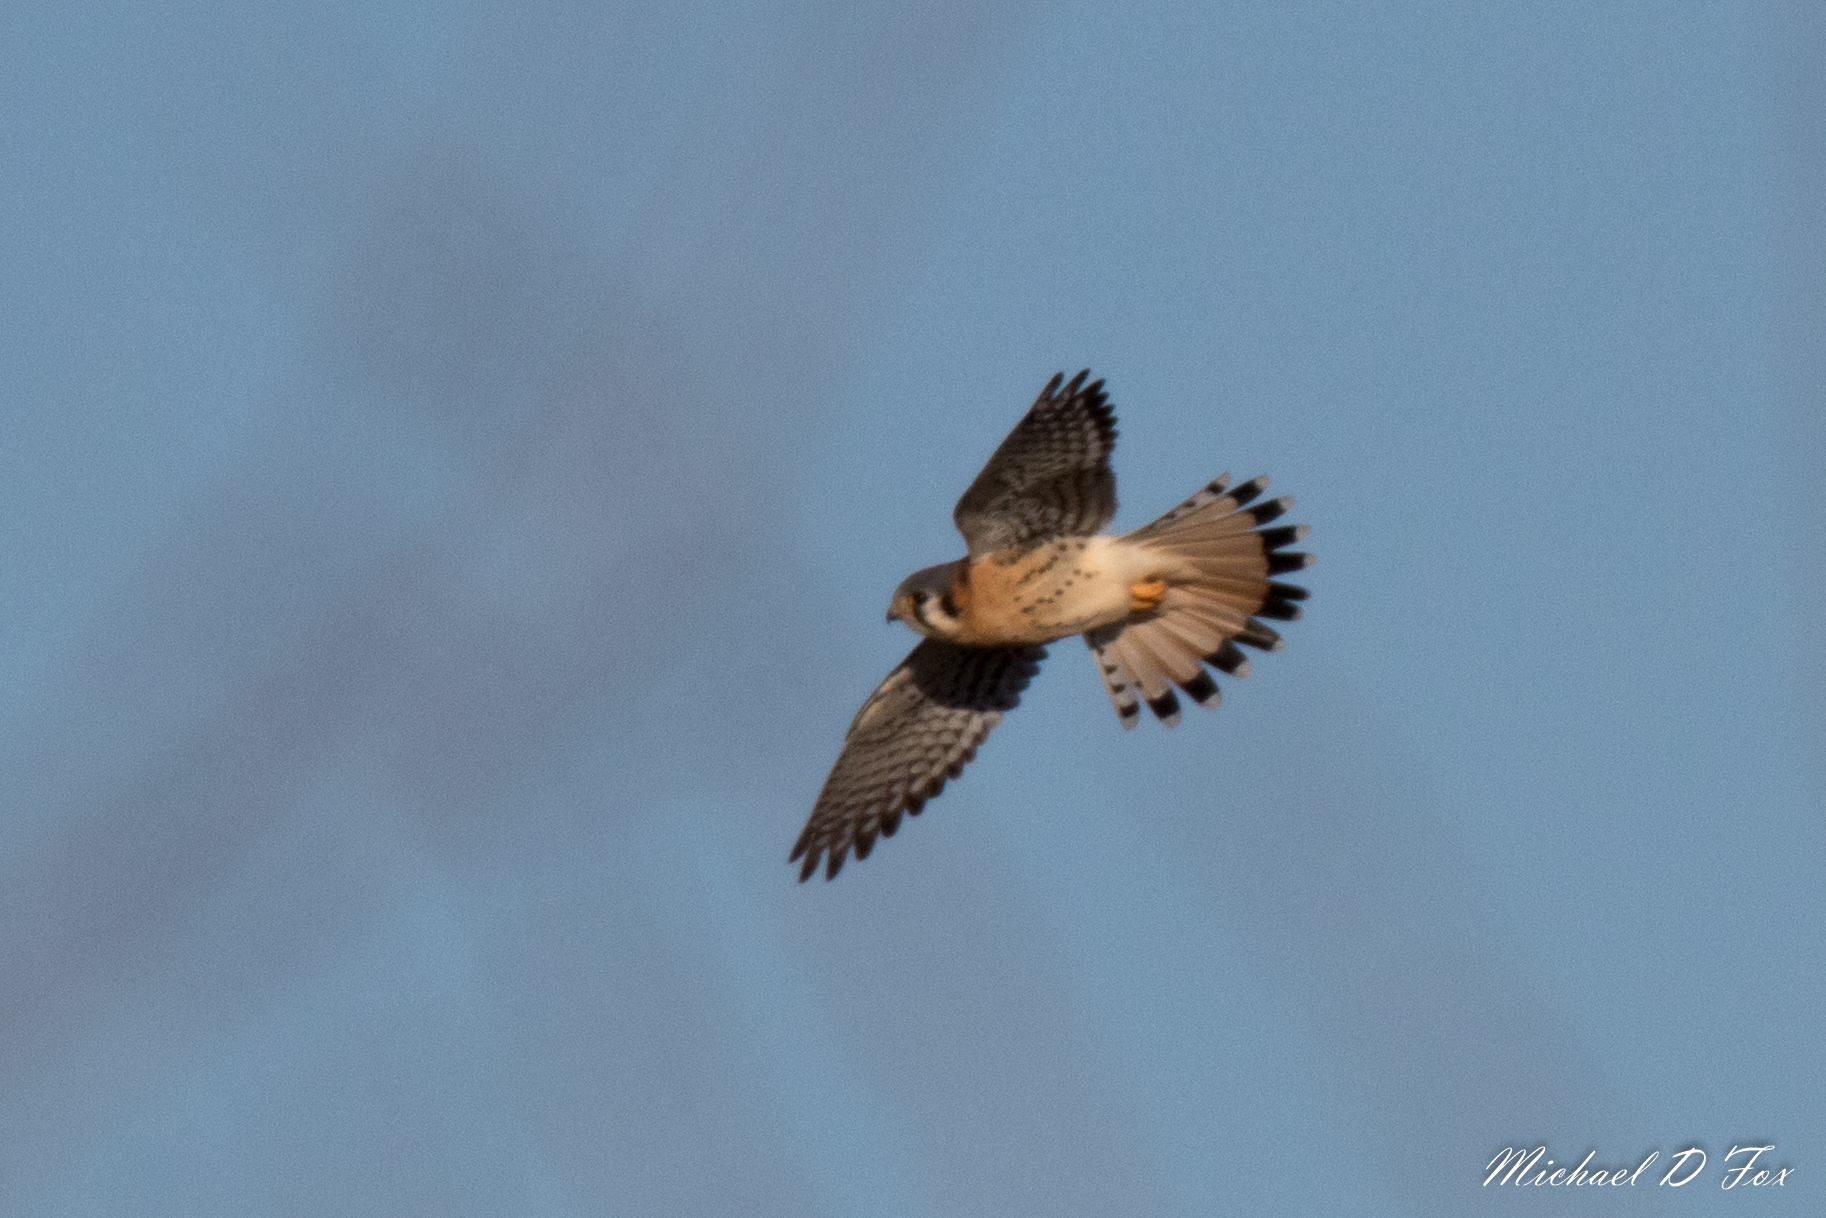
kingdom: Animalia
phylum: Chordata
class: Aves
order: Falconiformes
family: Falconidae
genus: Falco
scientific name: Falco sparverius
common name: American kestrel
